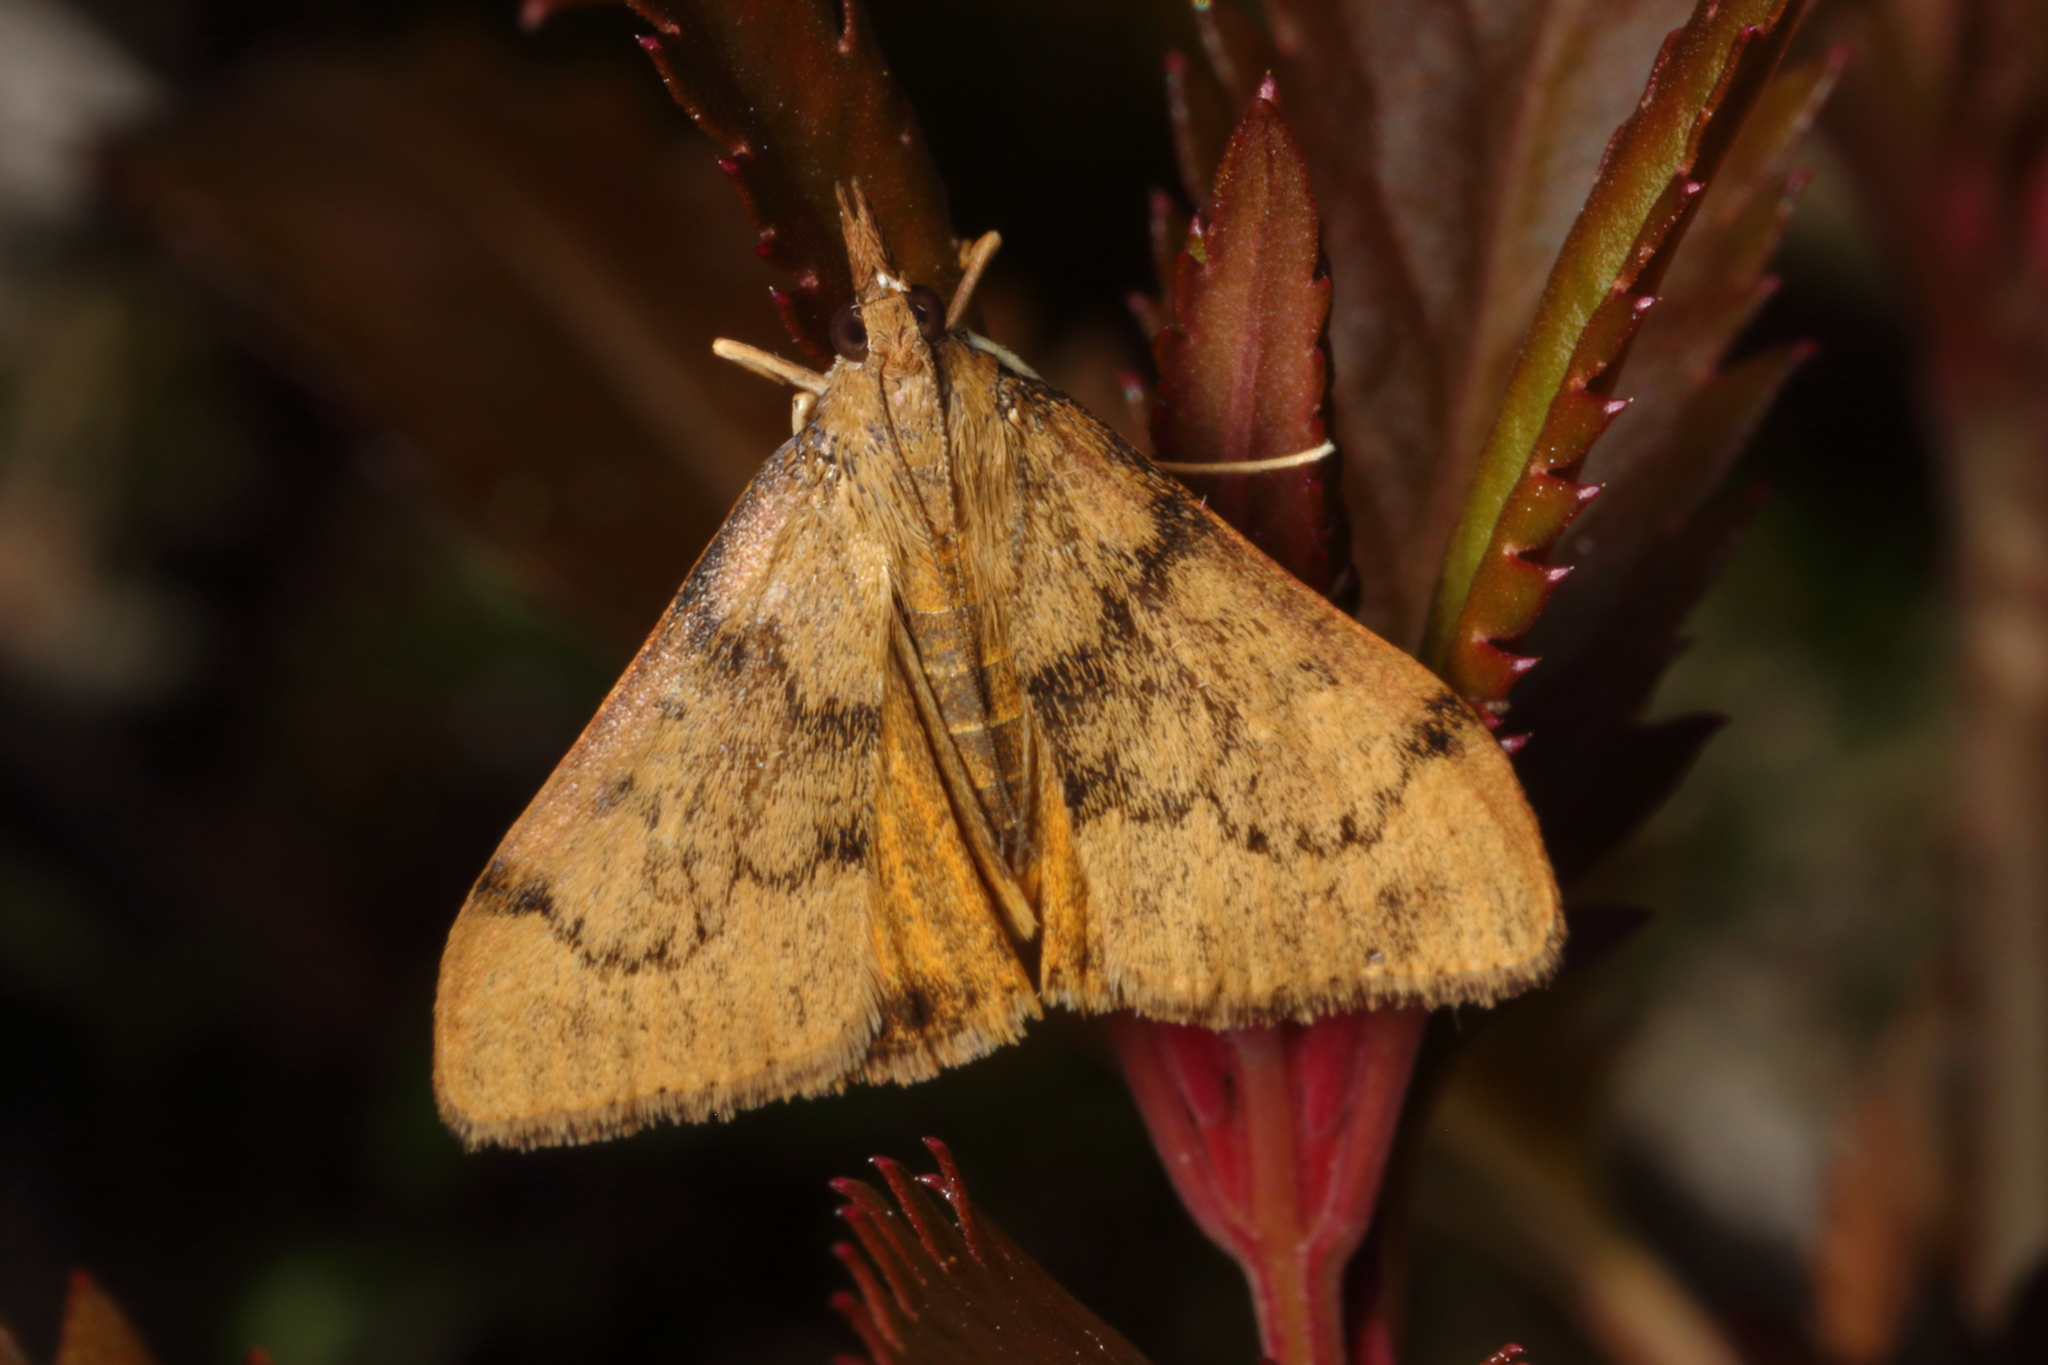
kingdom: Animalia
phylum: Arthropoda
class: Insecta
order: Lepidoptera
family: Crambidae
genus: Uresiphita
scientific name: Uresiphita
